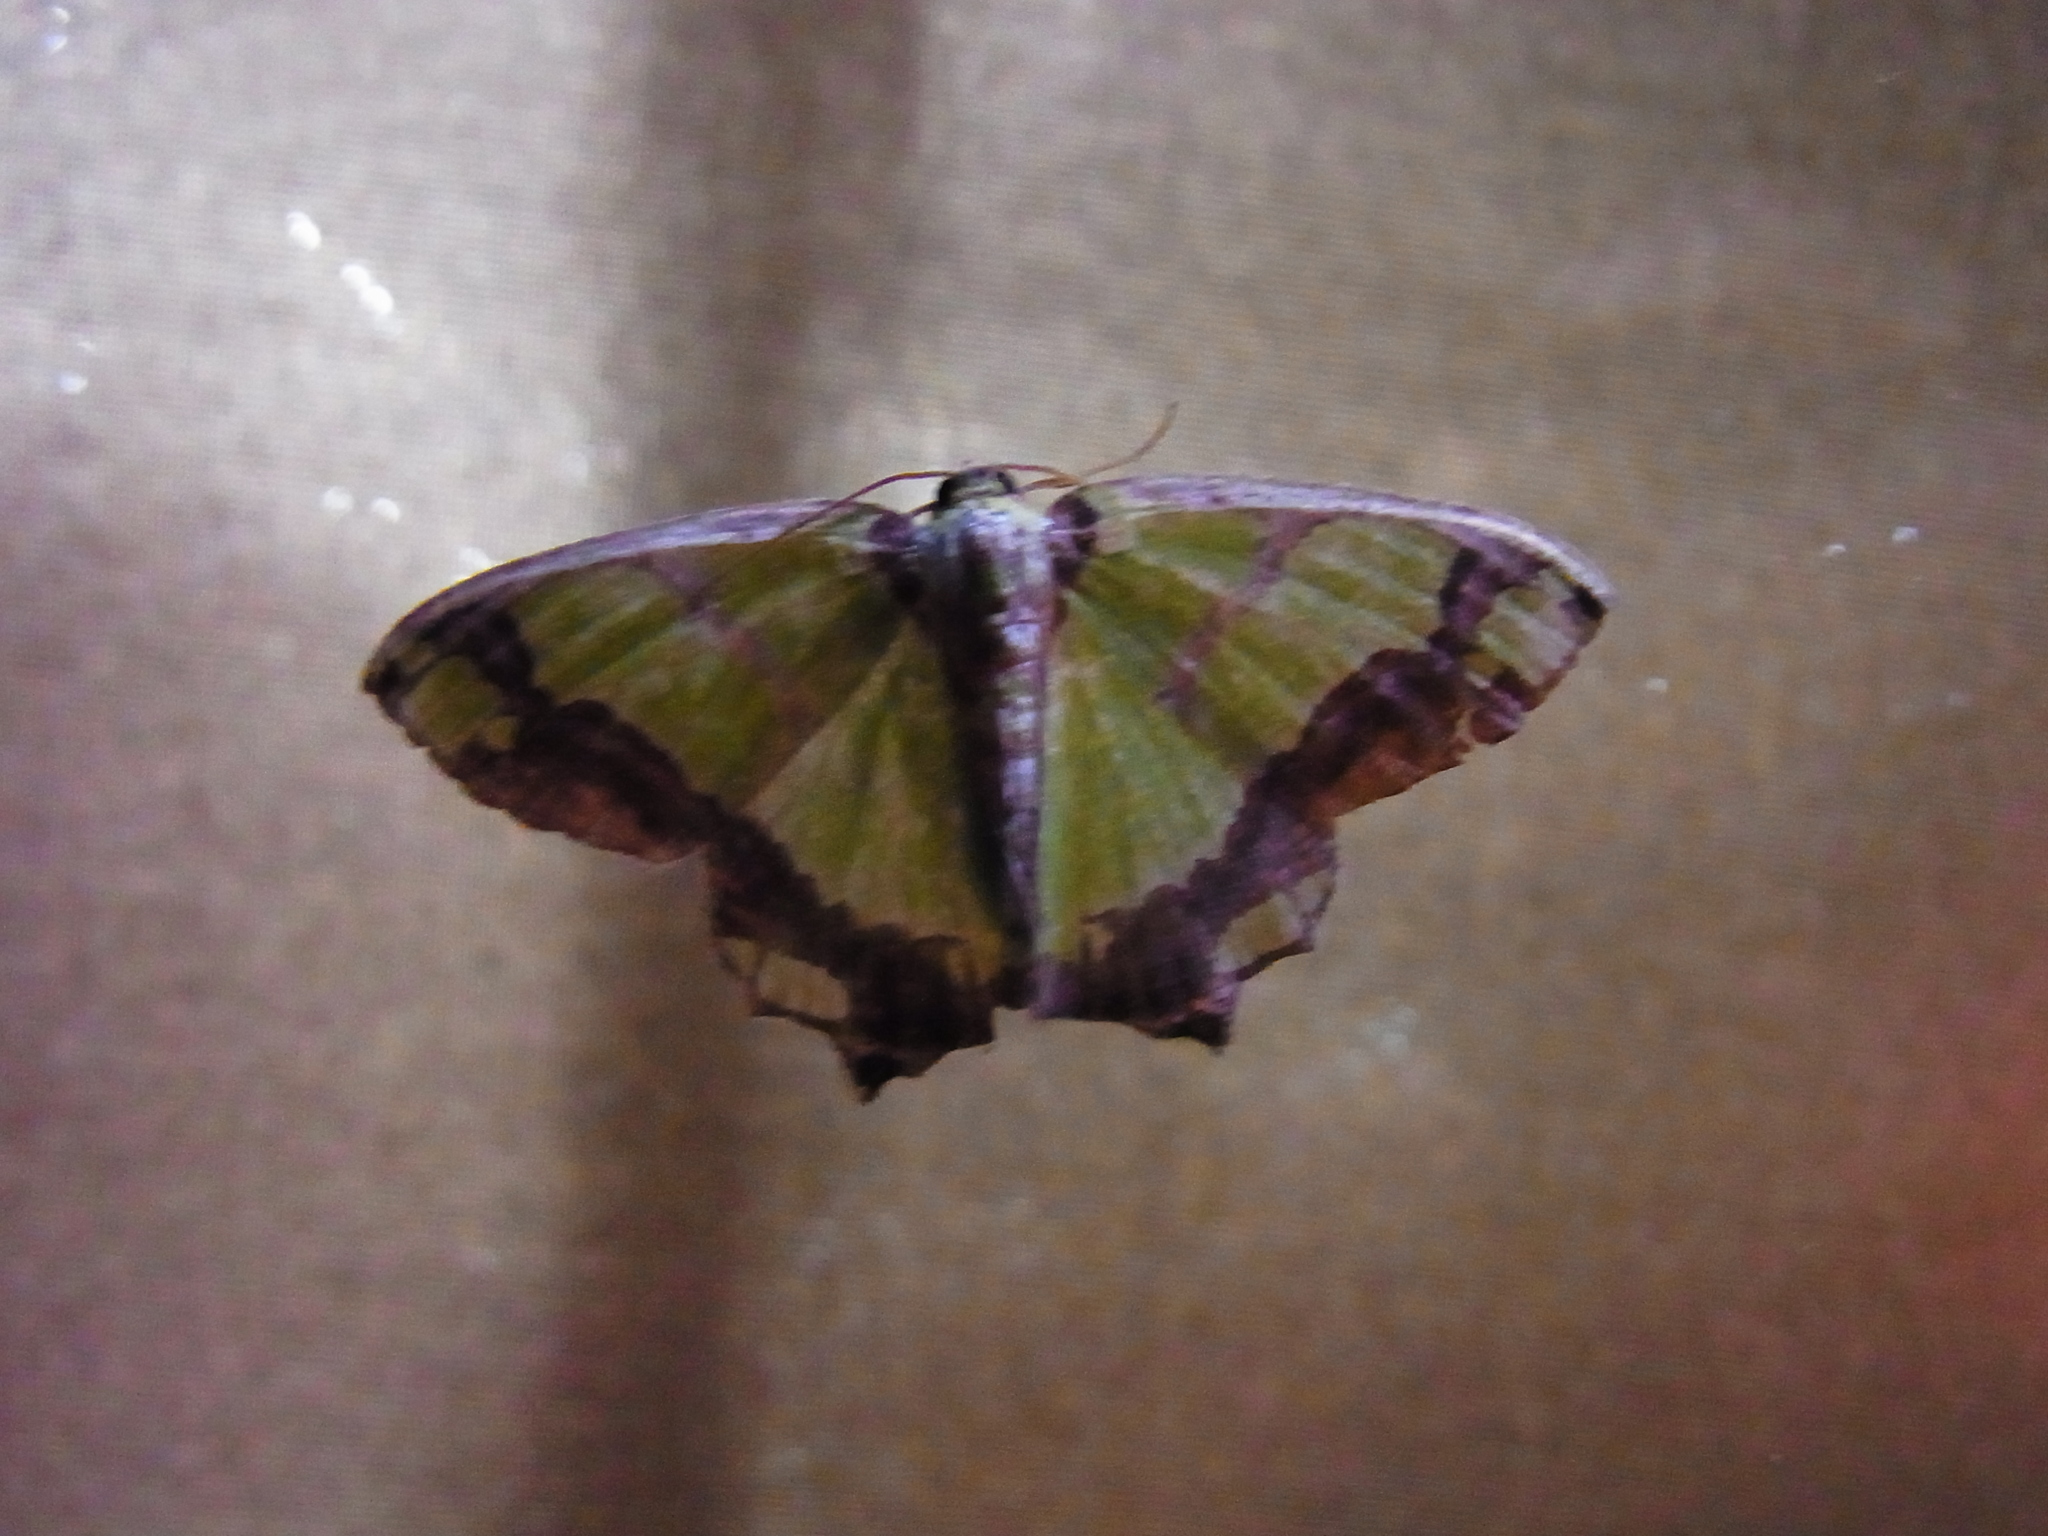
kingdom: Animalia
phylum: Arthropoda
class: Insecta
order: Lepidoptera
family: Geometridae
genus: Agathia
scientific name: Agathia visenda
